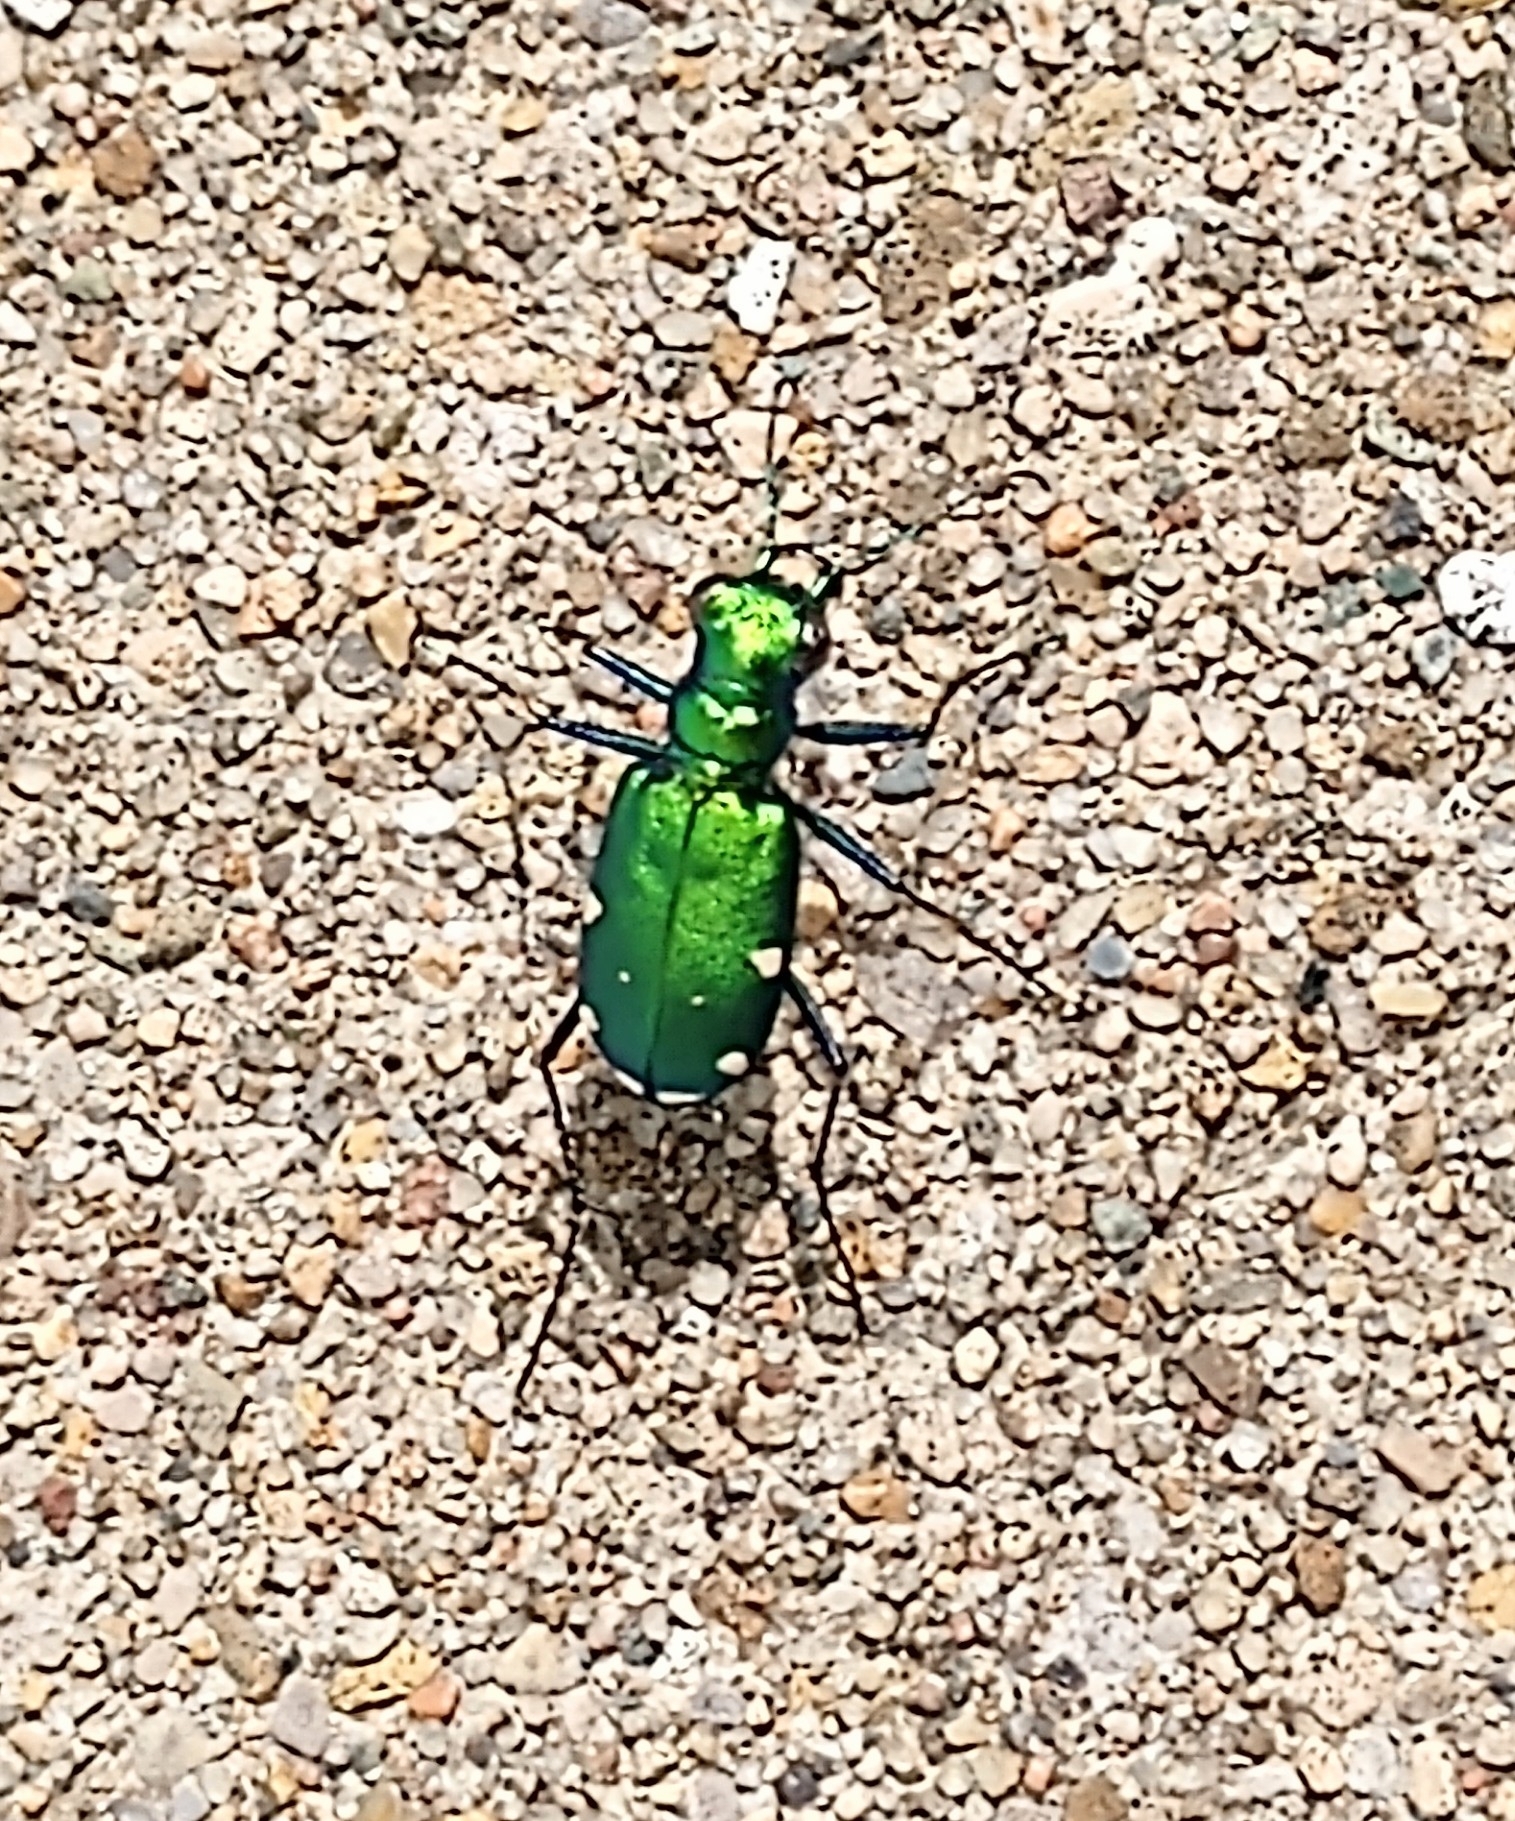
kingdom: Animalia
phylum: Arthropoda
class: Insecta
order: Coleoptera
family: Carabidae
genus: Cicindela
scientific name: Cicindela sexguttata
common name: Six-spotted tiger beetle
